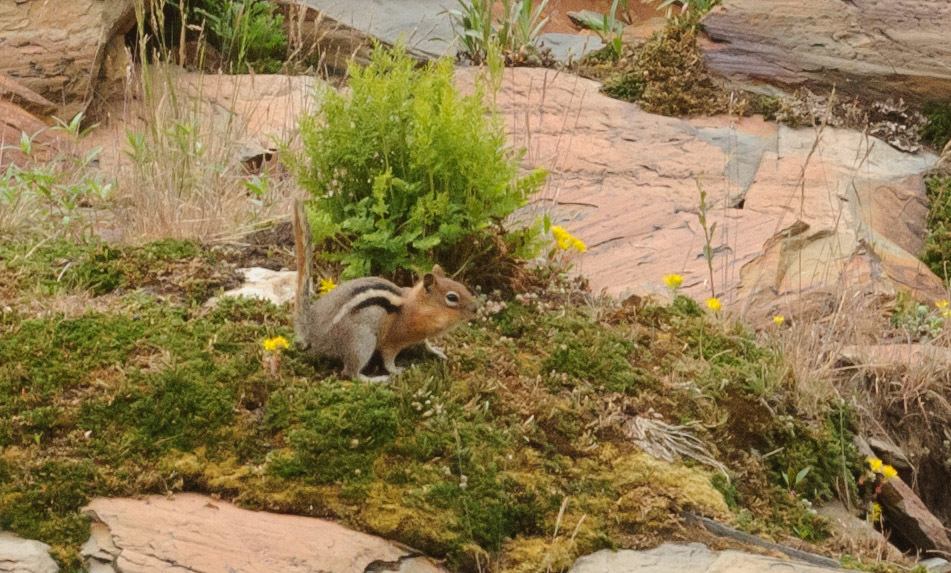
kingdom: Animalia
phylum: Chordata
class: Mammalia
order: Rodentia
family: Sciuridae
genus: Callospermophilus
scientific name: Callospermophilus lateralis
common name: Golden-mantled ground squirrel
